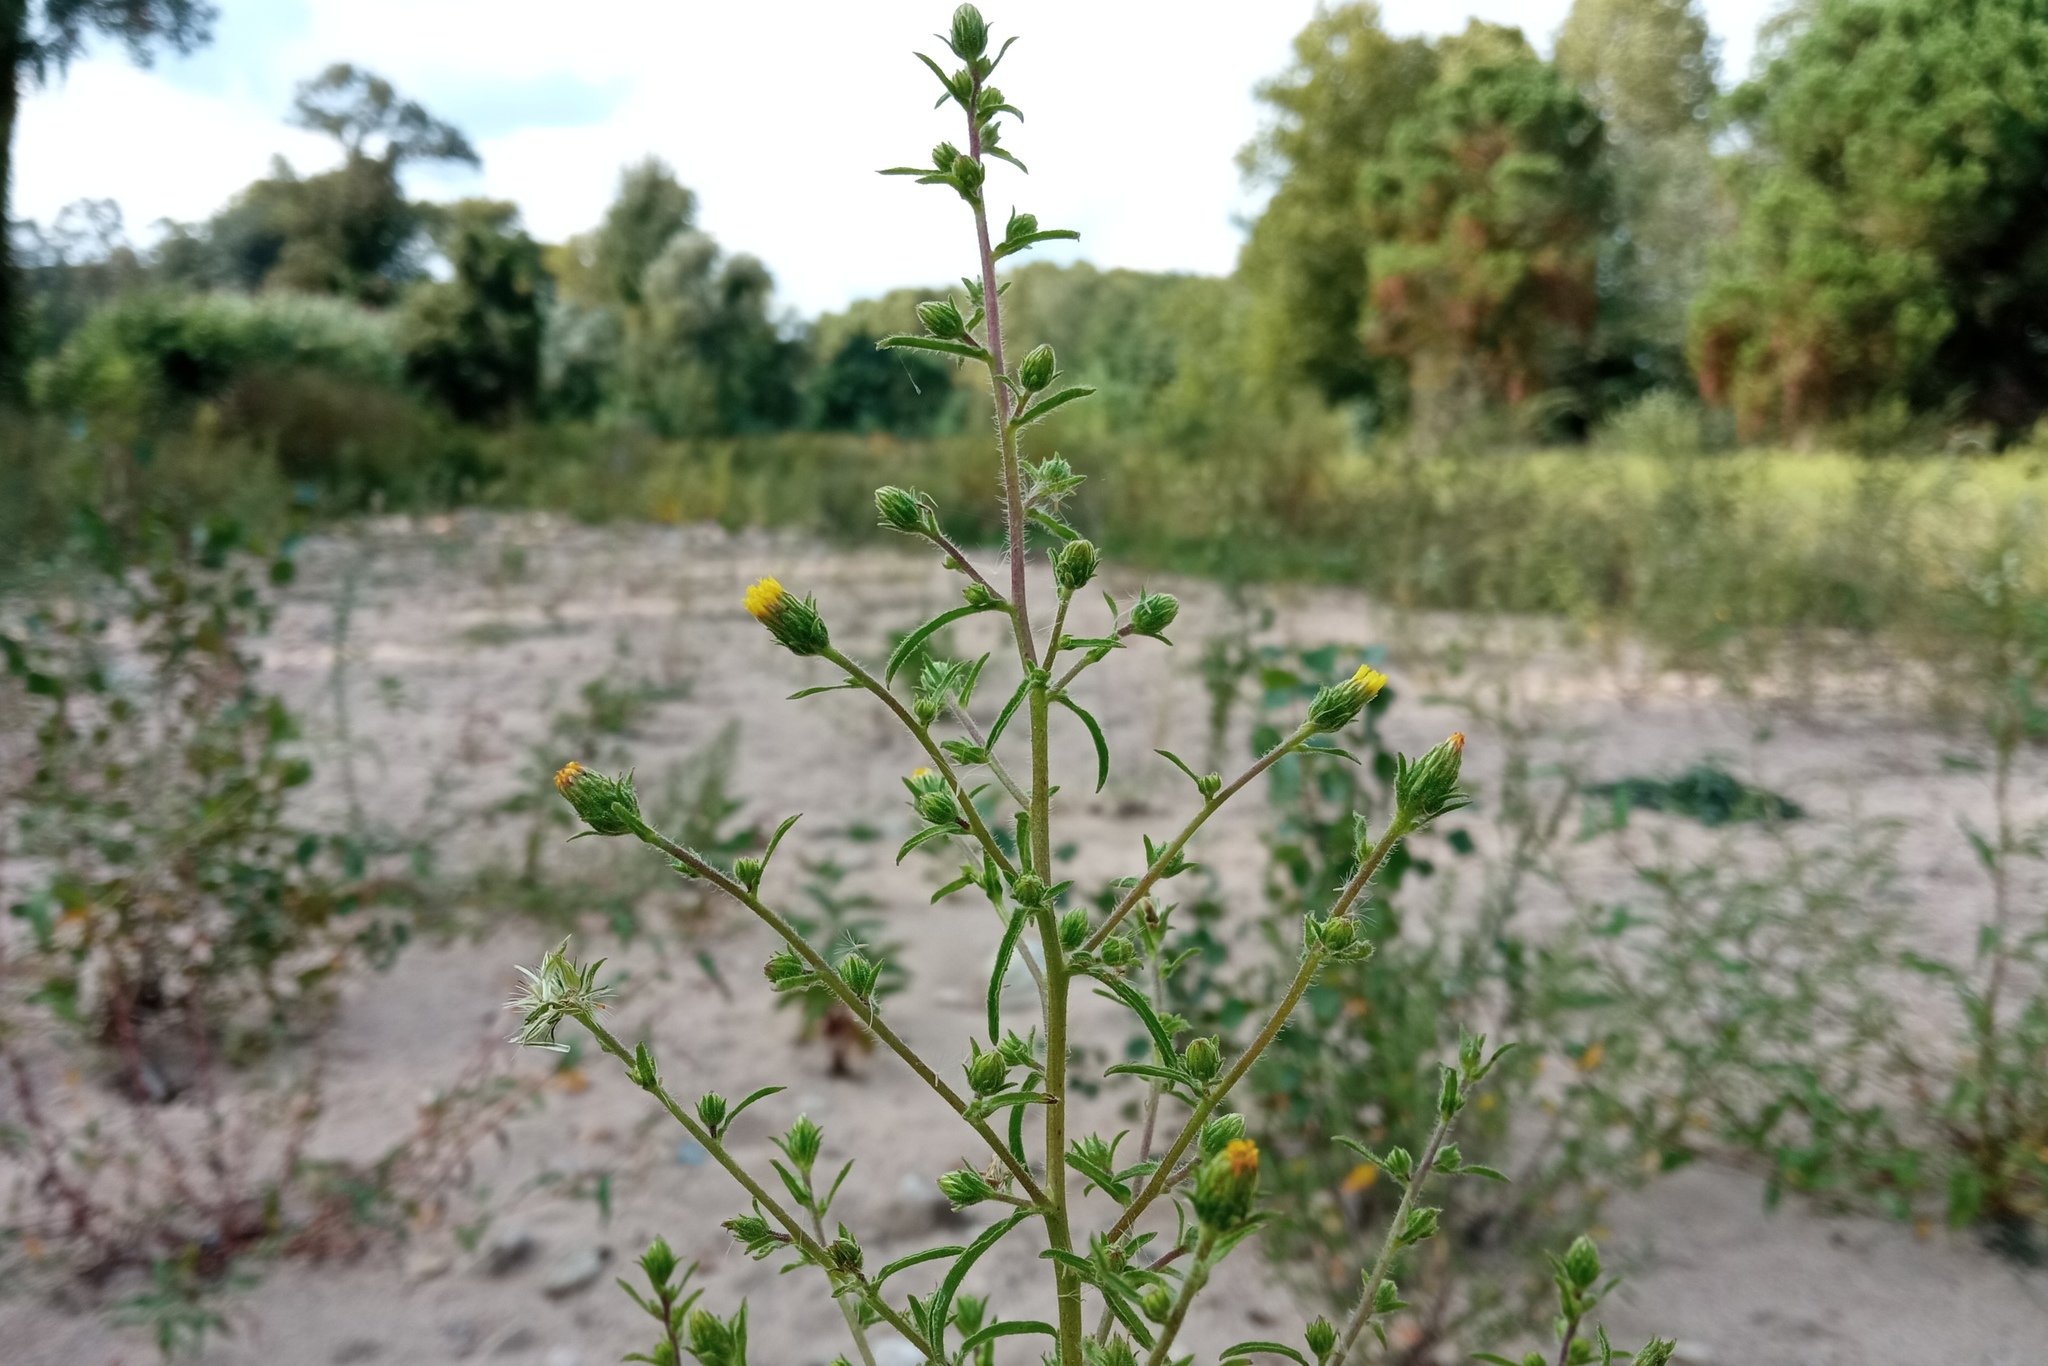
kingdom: Plantae
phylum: Tracheophyta
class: Magnoliopsida
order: Asterales
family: Asteraceae
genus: Dittrichia
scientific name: Dittrichia graveolens
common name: Stinking fleabane
